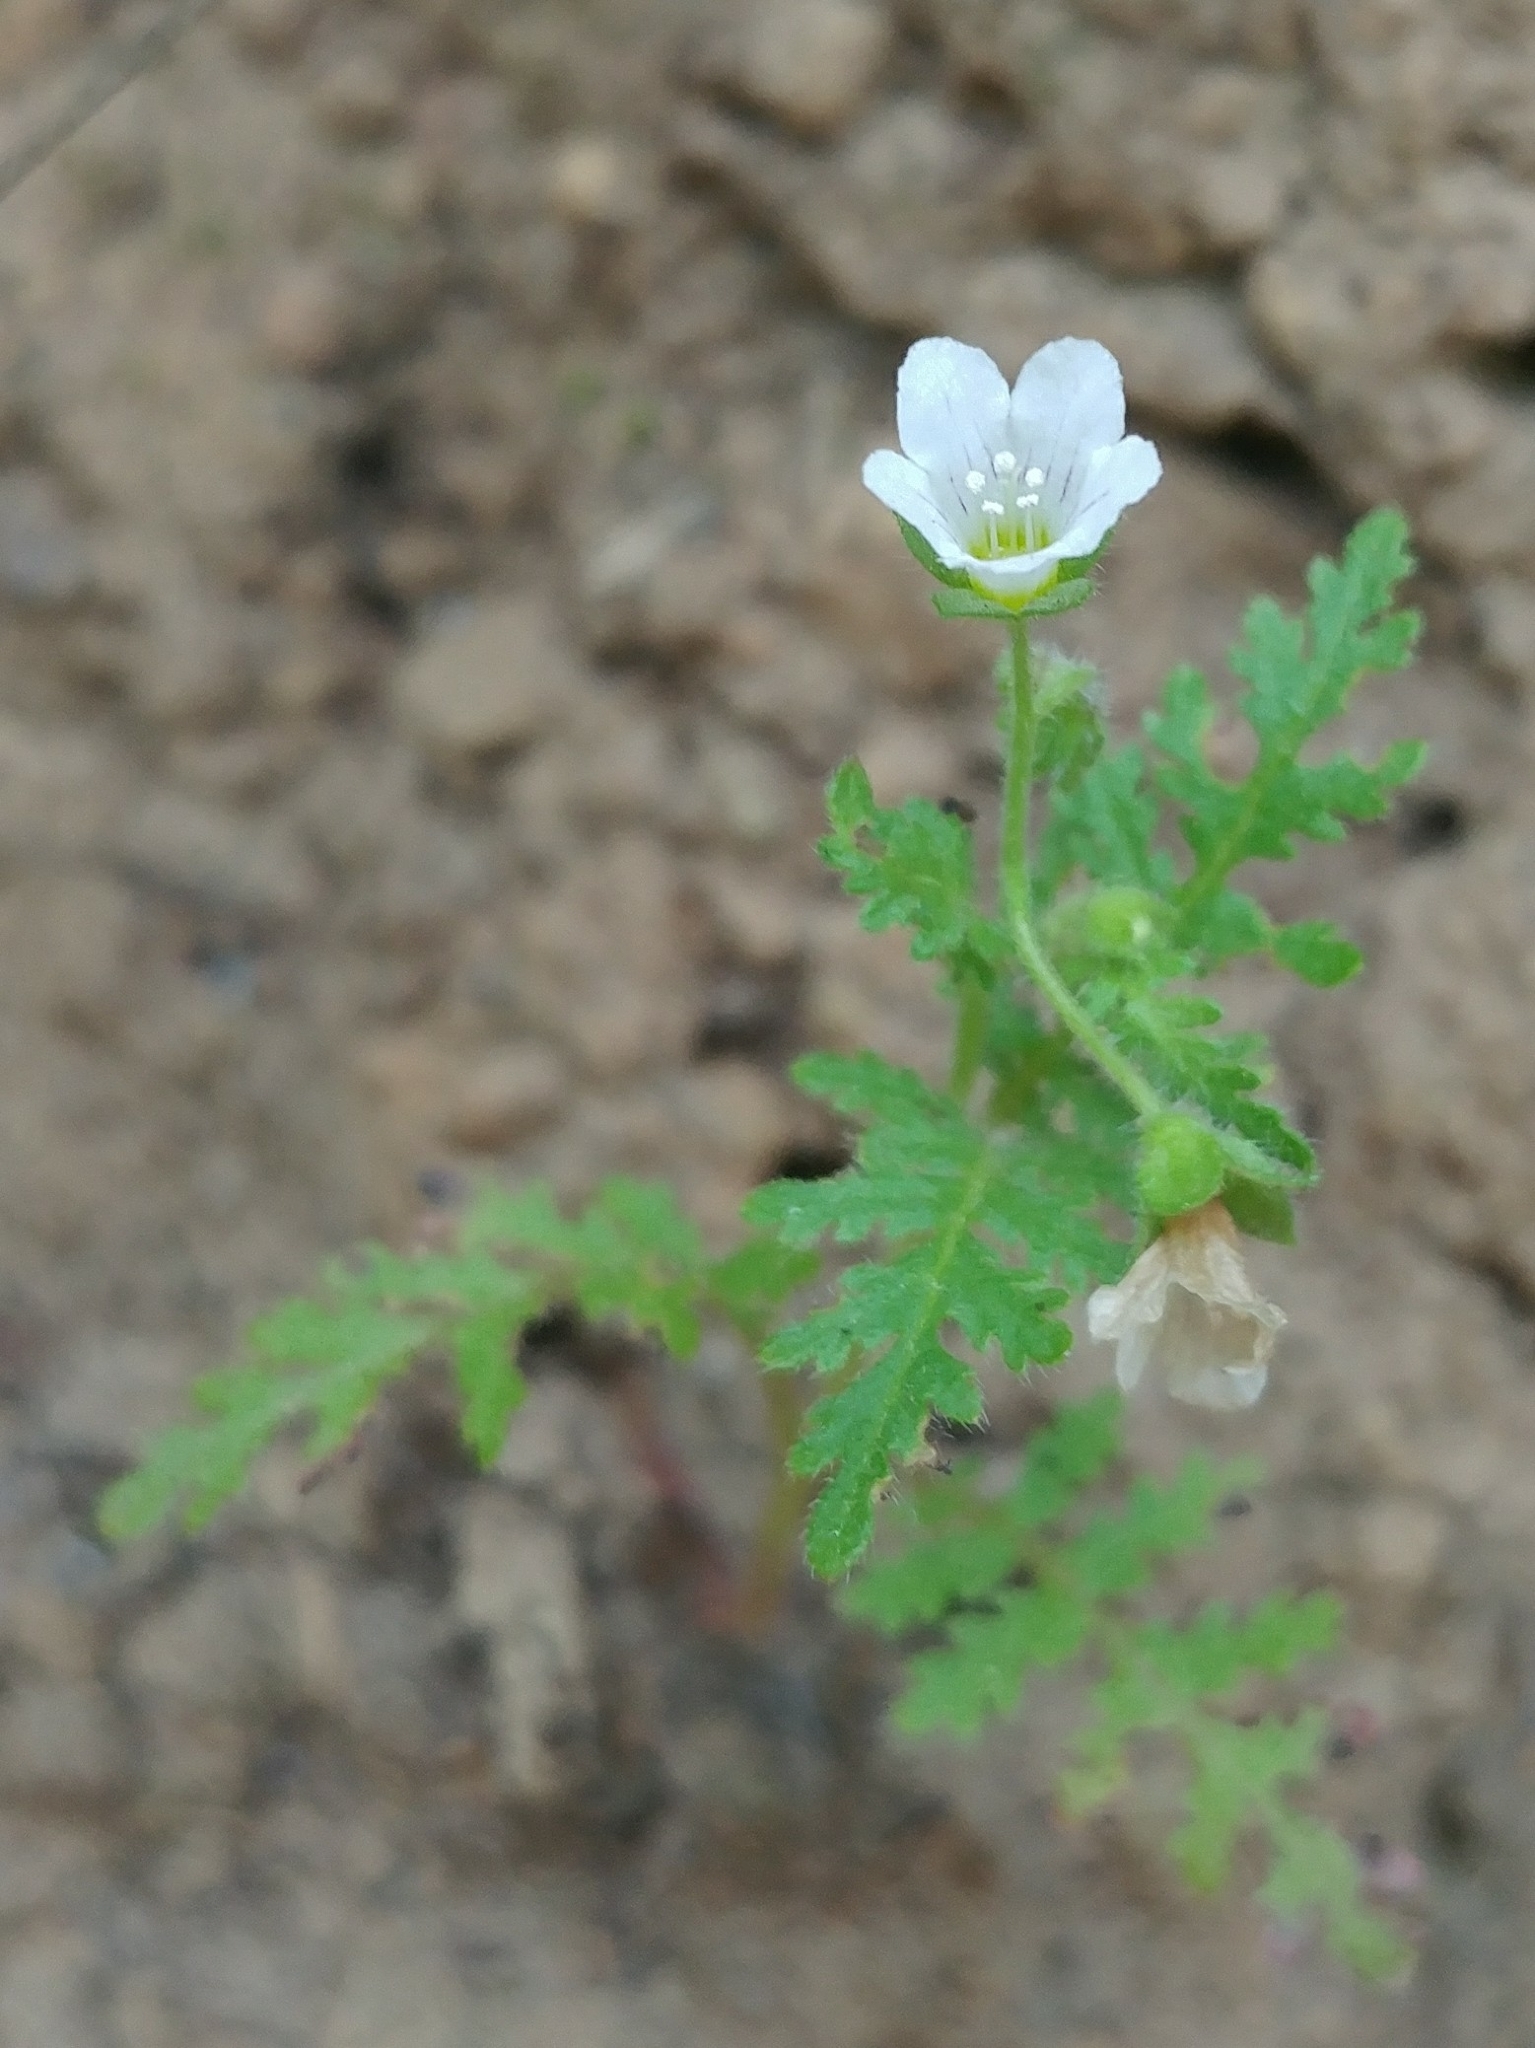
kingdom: Plantae
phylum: Tracheophyta
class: Magnoliopsida
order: Boraginales
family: Hydrophyllaceae
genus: Eucrypta
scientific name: Eucrypta chrysanthemifolia
